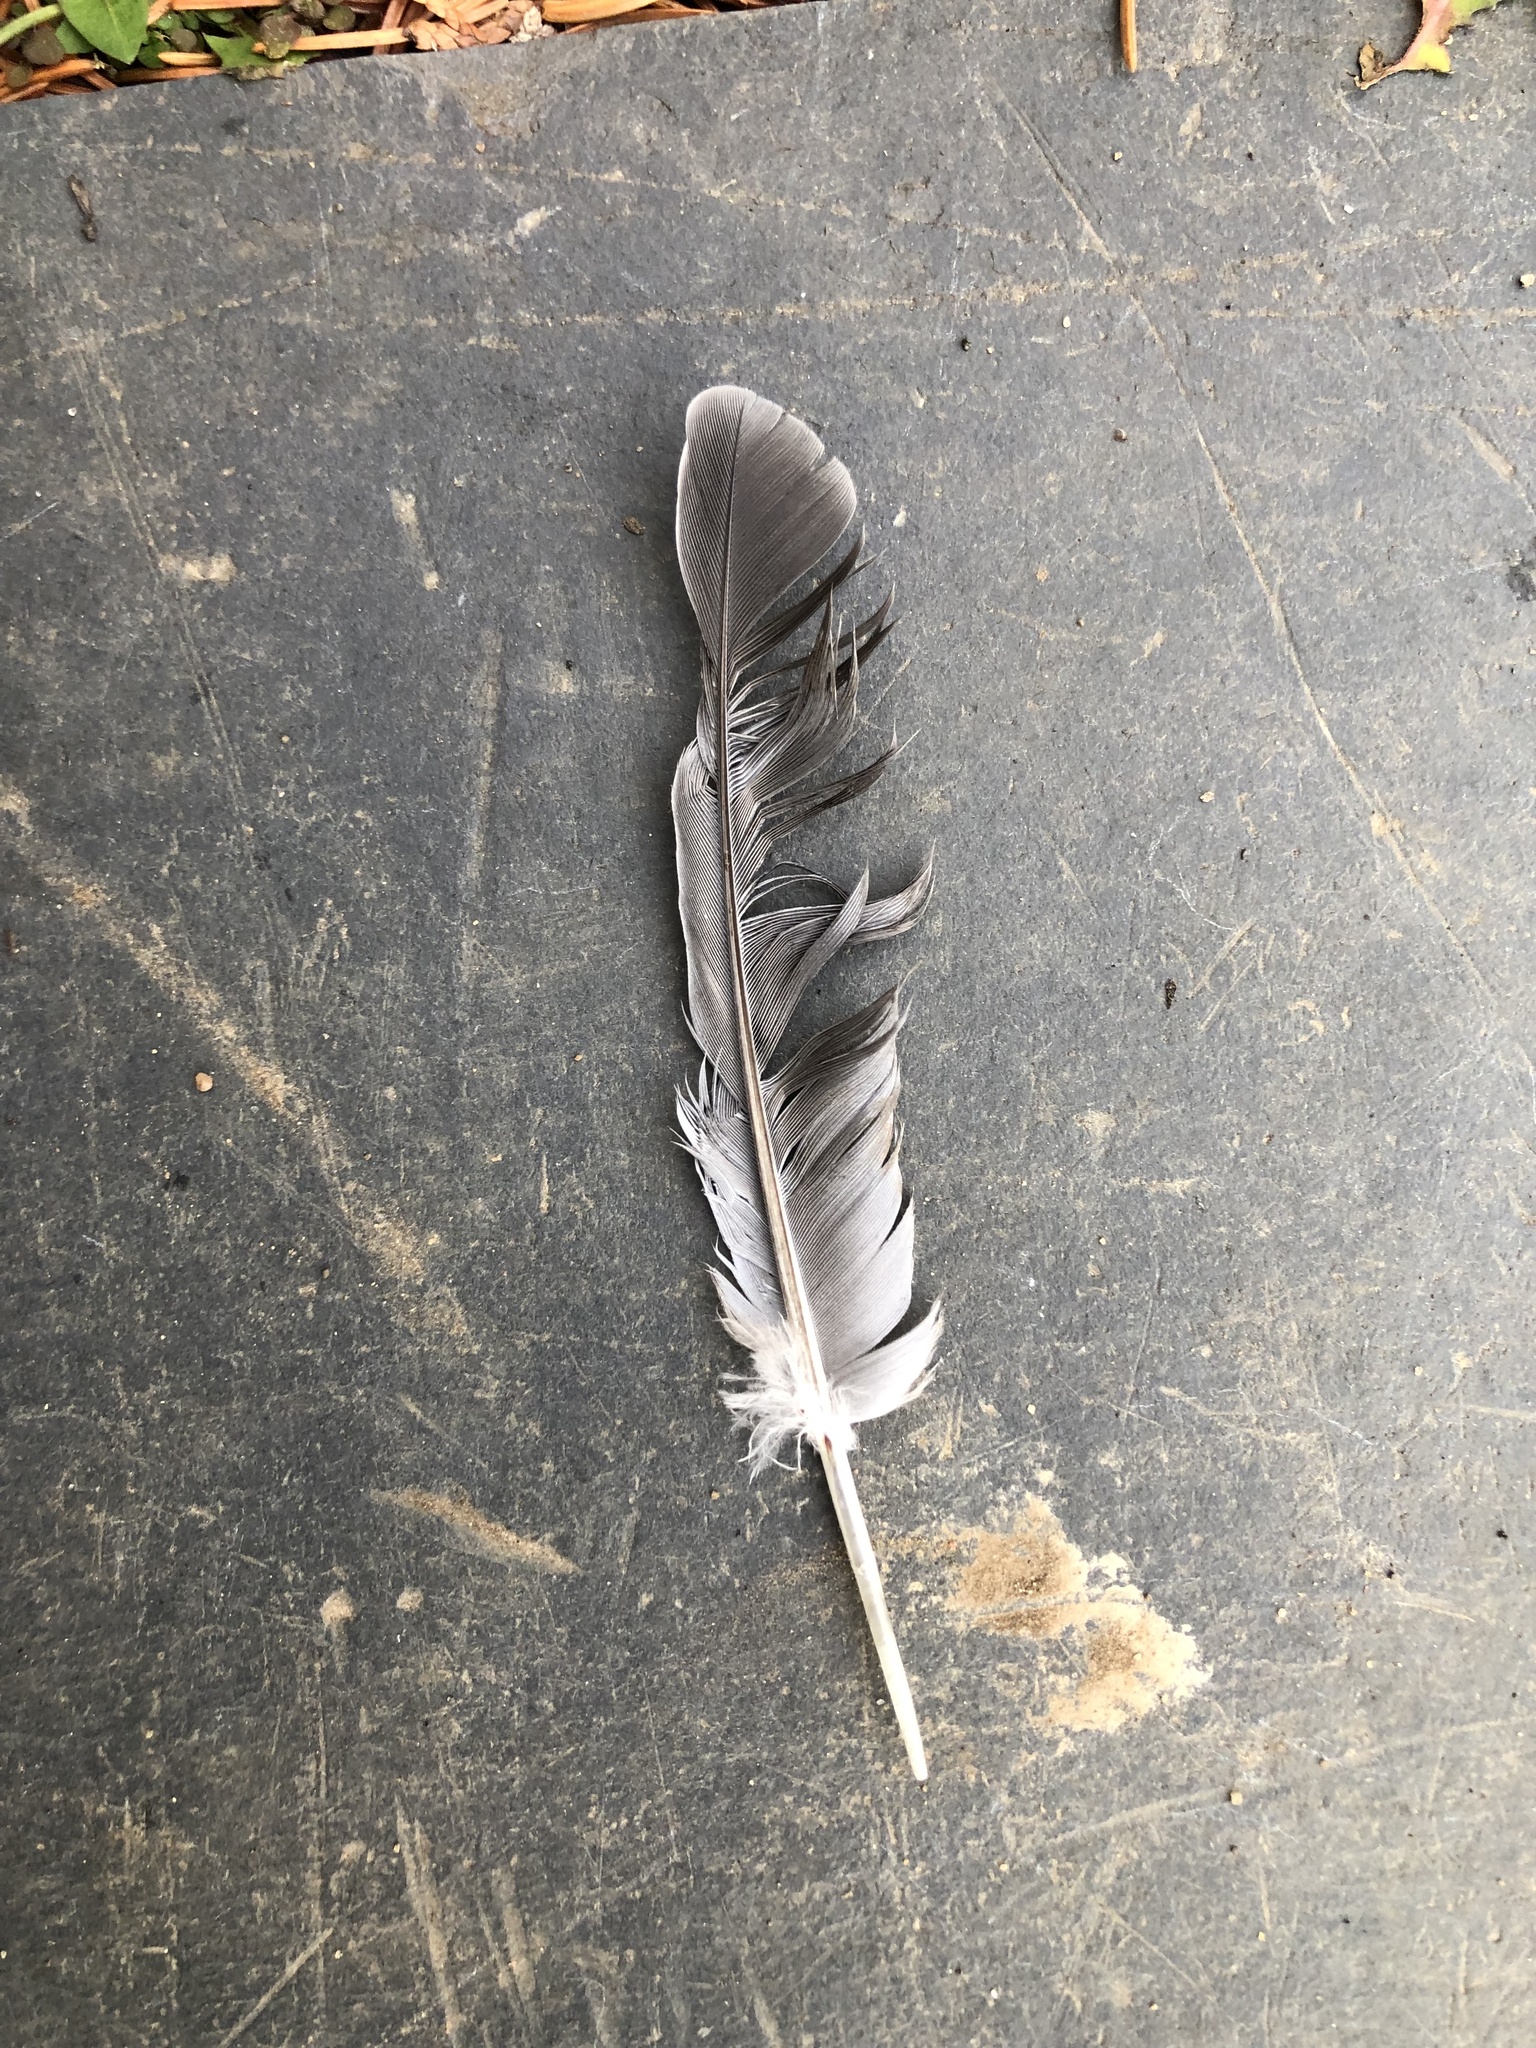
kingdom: Animalia
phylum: Chordata
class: Aves
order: Columbiformes
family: Columbidae
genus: Zenaida
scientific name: Zenaida macroura
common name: Mourning dove
